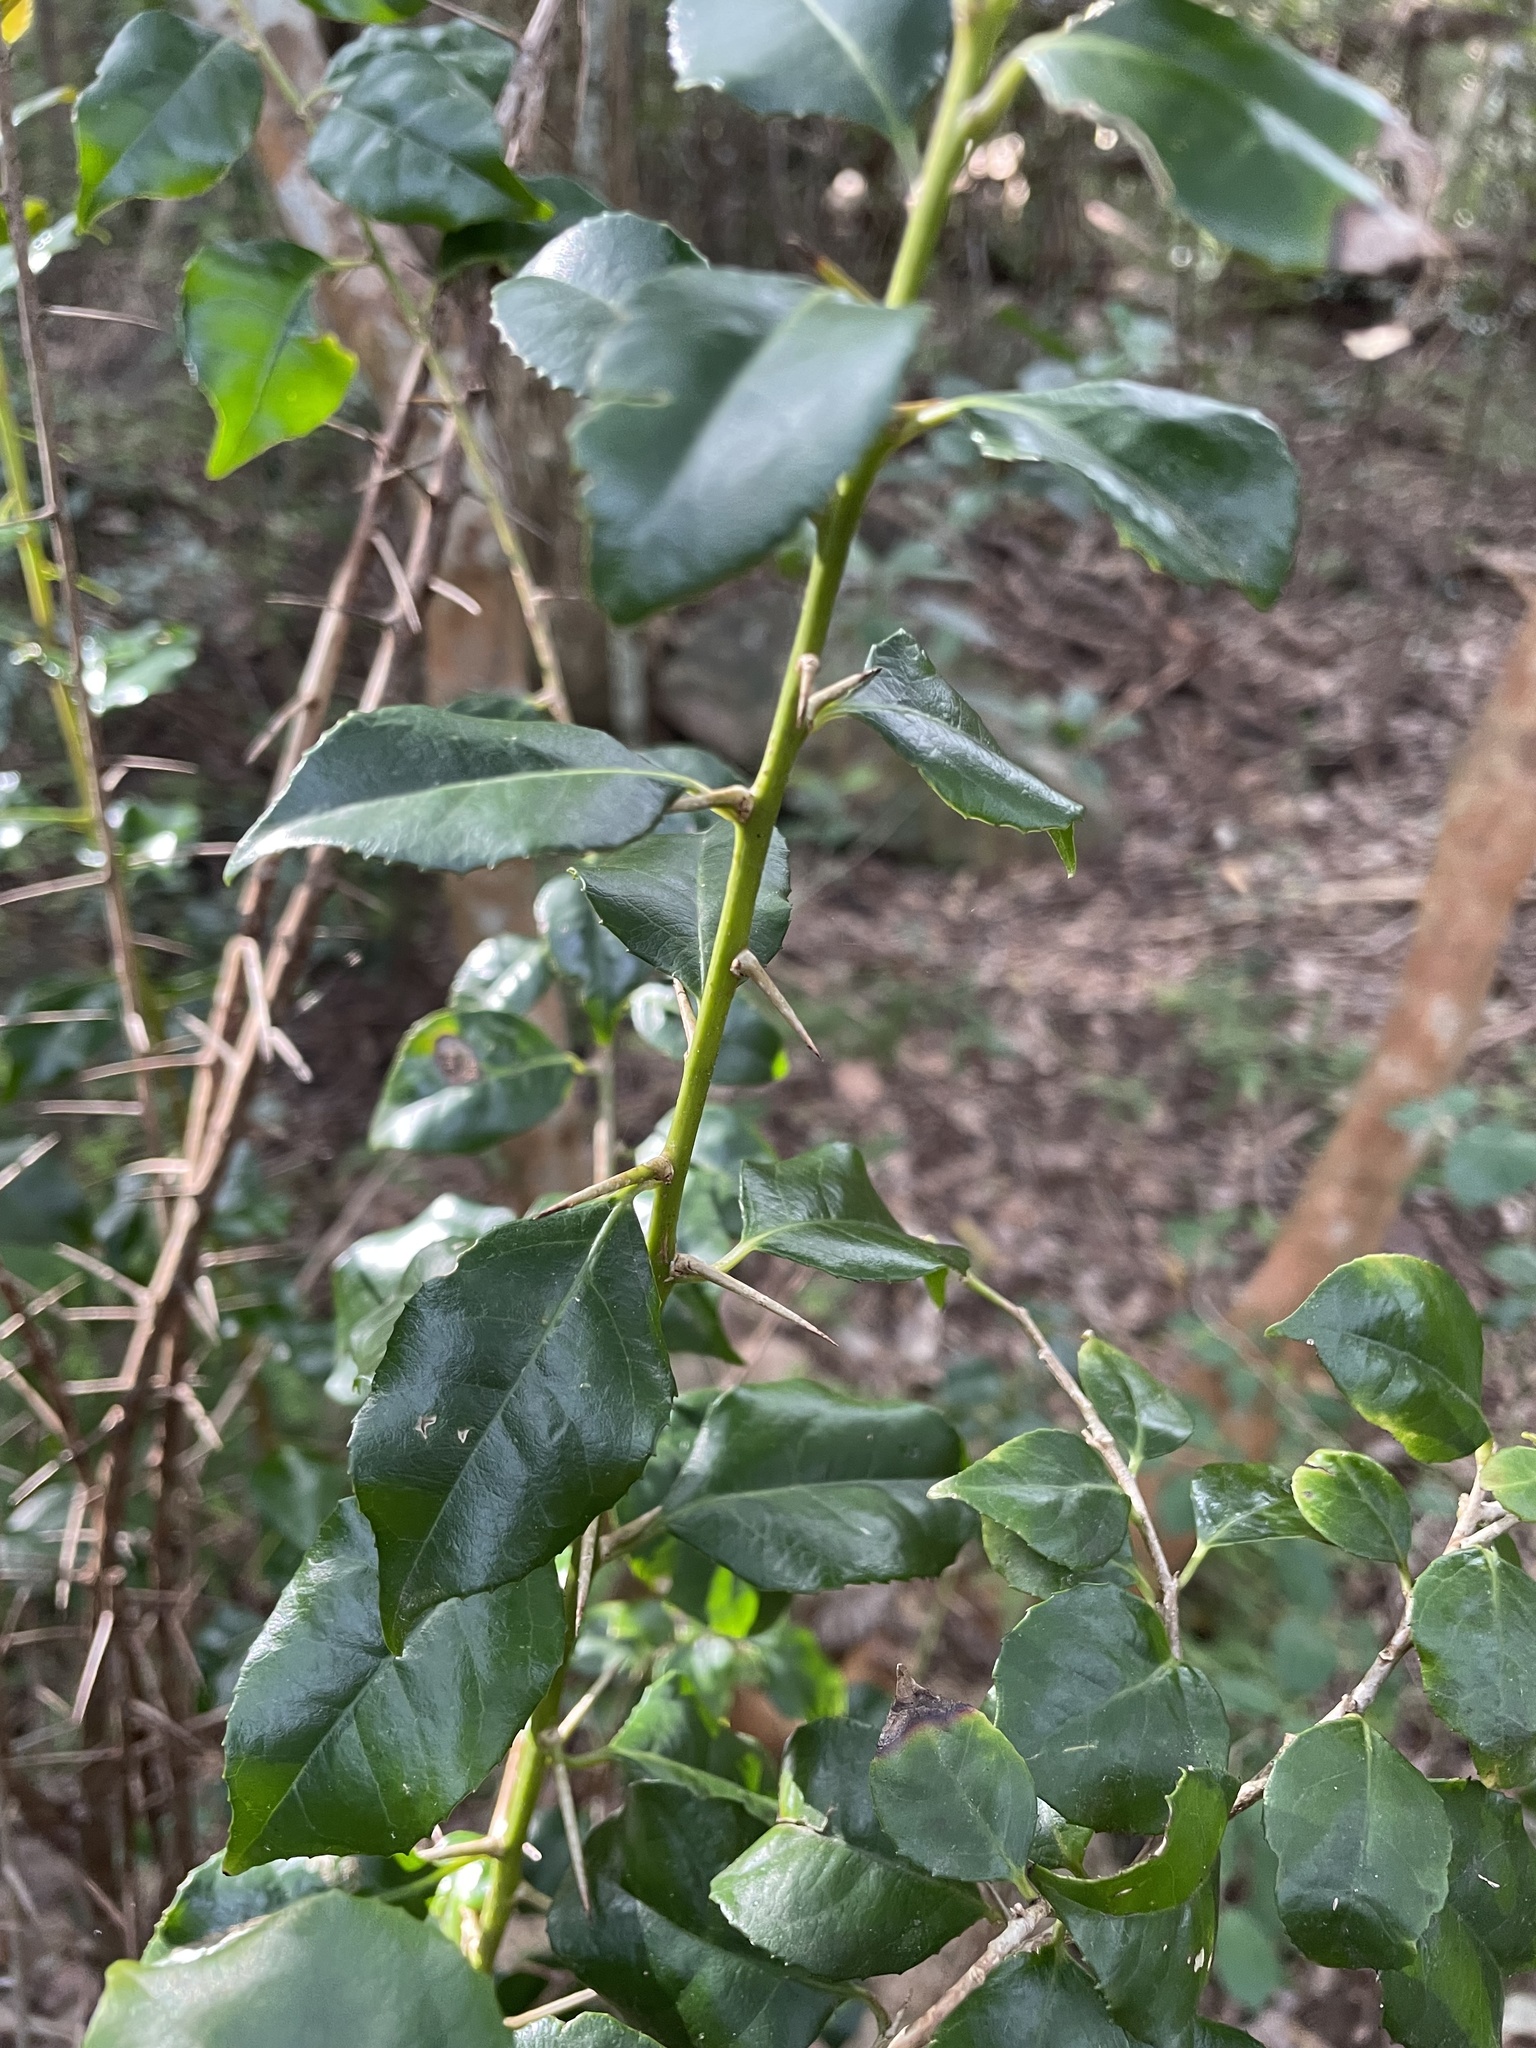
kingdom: Plantae
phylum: Tracheophyta
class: Magnoliopsida
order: Malpighiales
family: Salicaceae
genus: Scolopia
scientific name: Scolopia mundii
